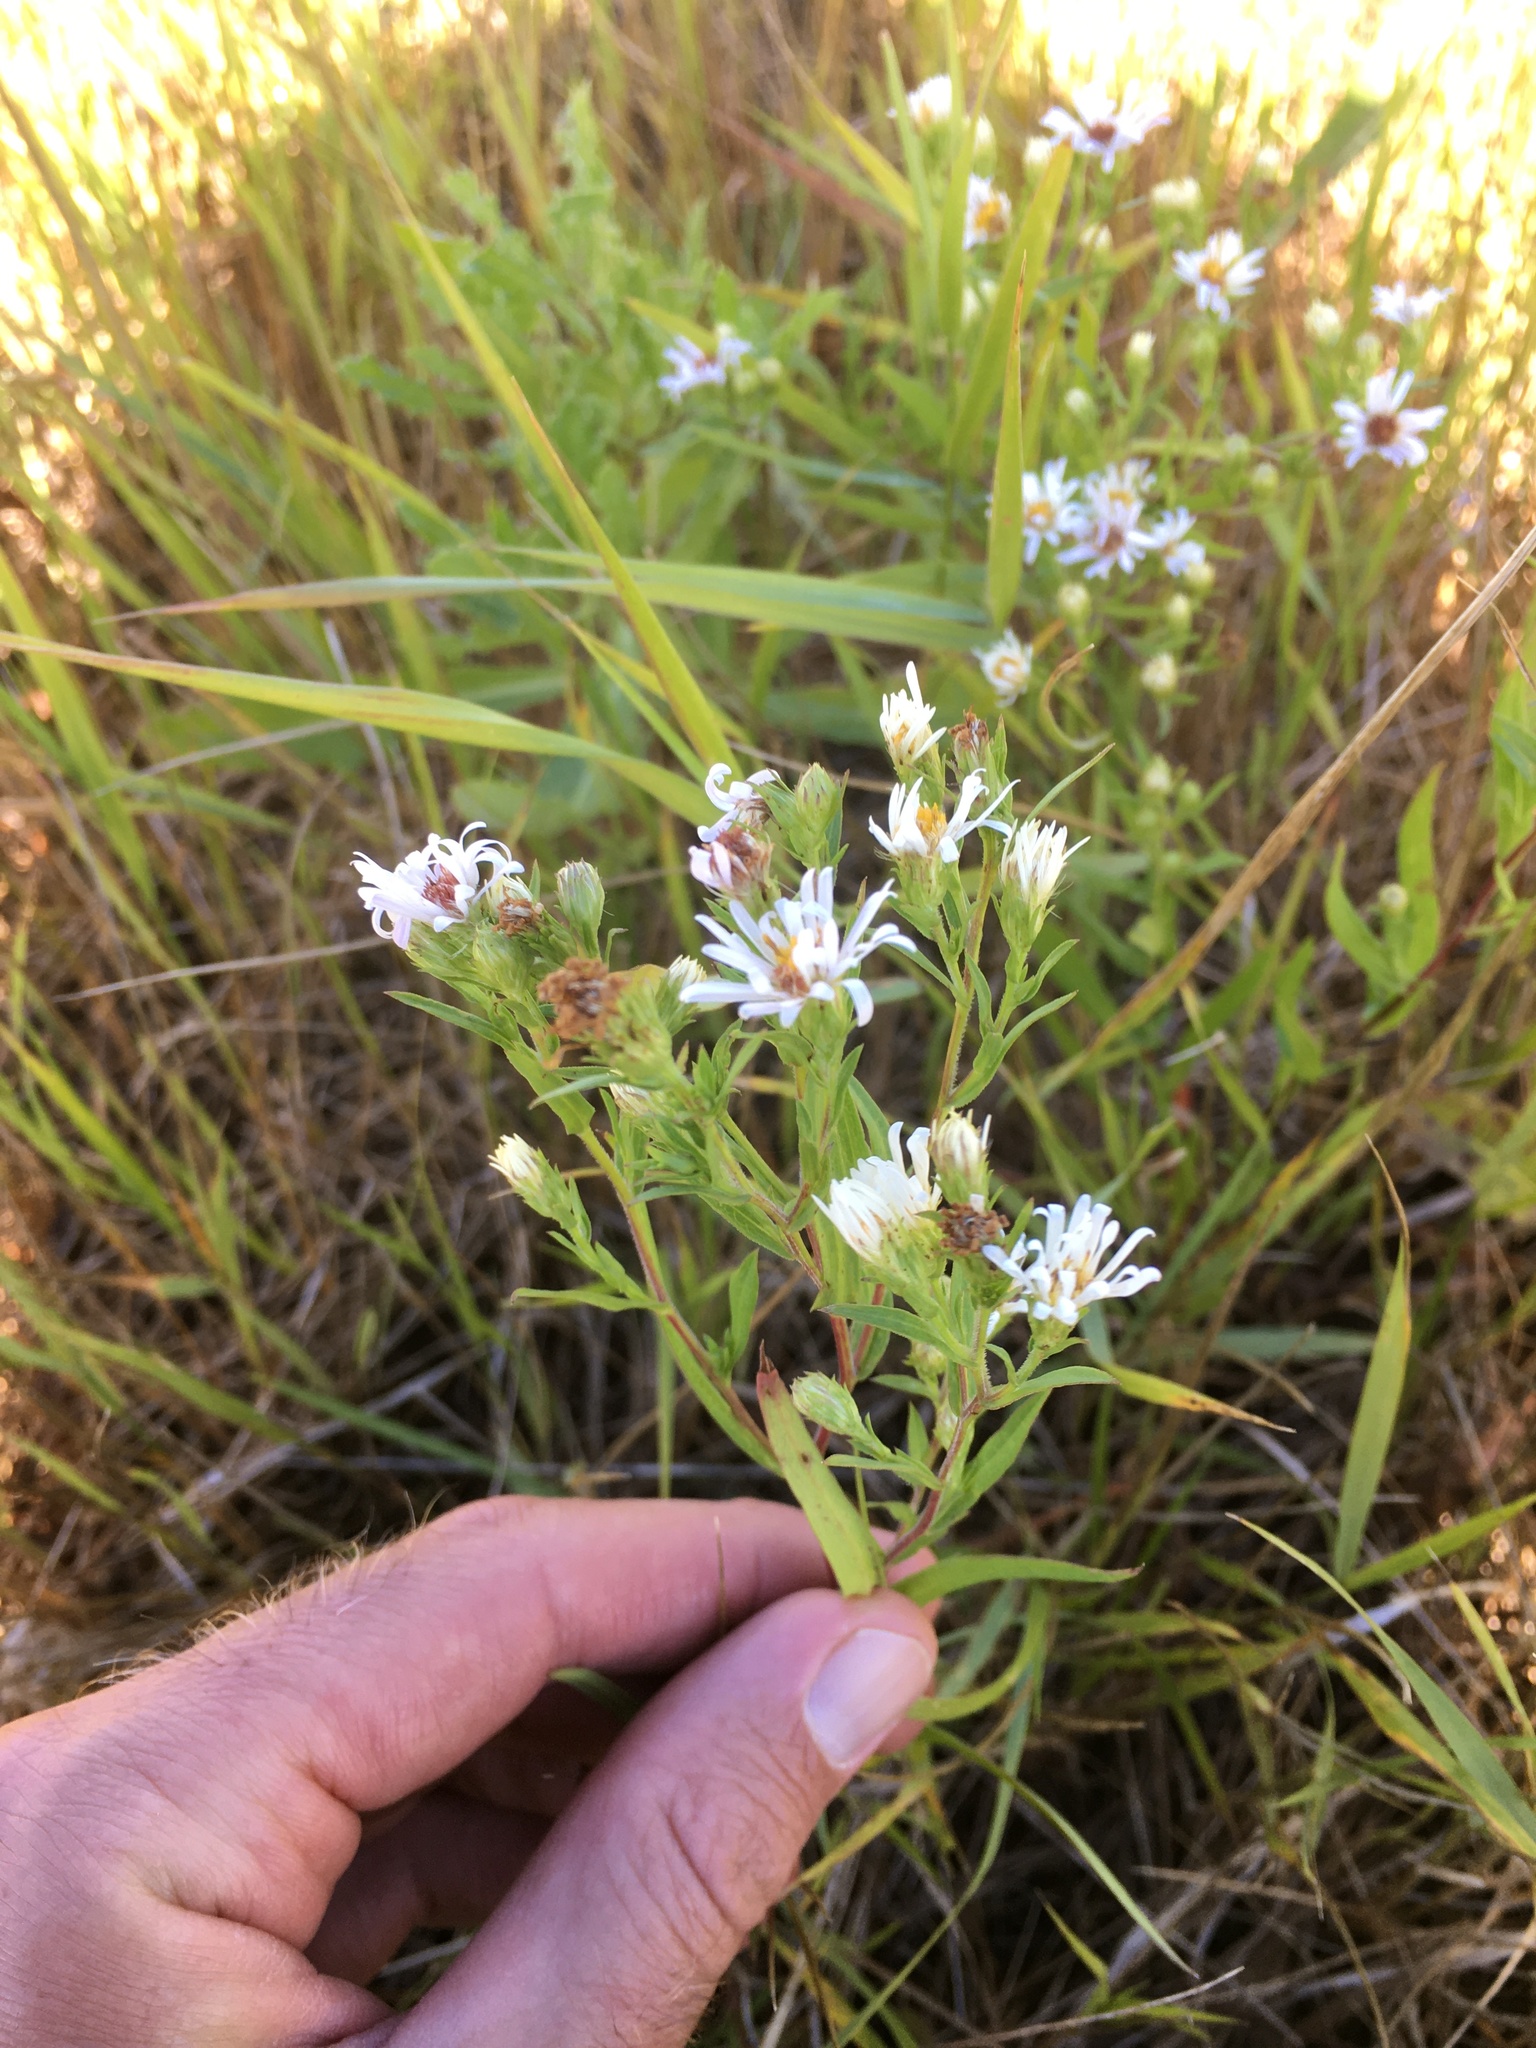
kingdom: Plantae
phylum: Tracheophyta
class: Magnoliopsida
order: Asterales
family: Asteraceae
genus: Symphyotrichum
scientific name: Symphyotrichum lanceolatum
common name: Panicled aster
